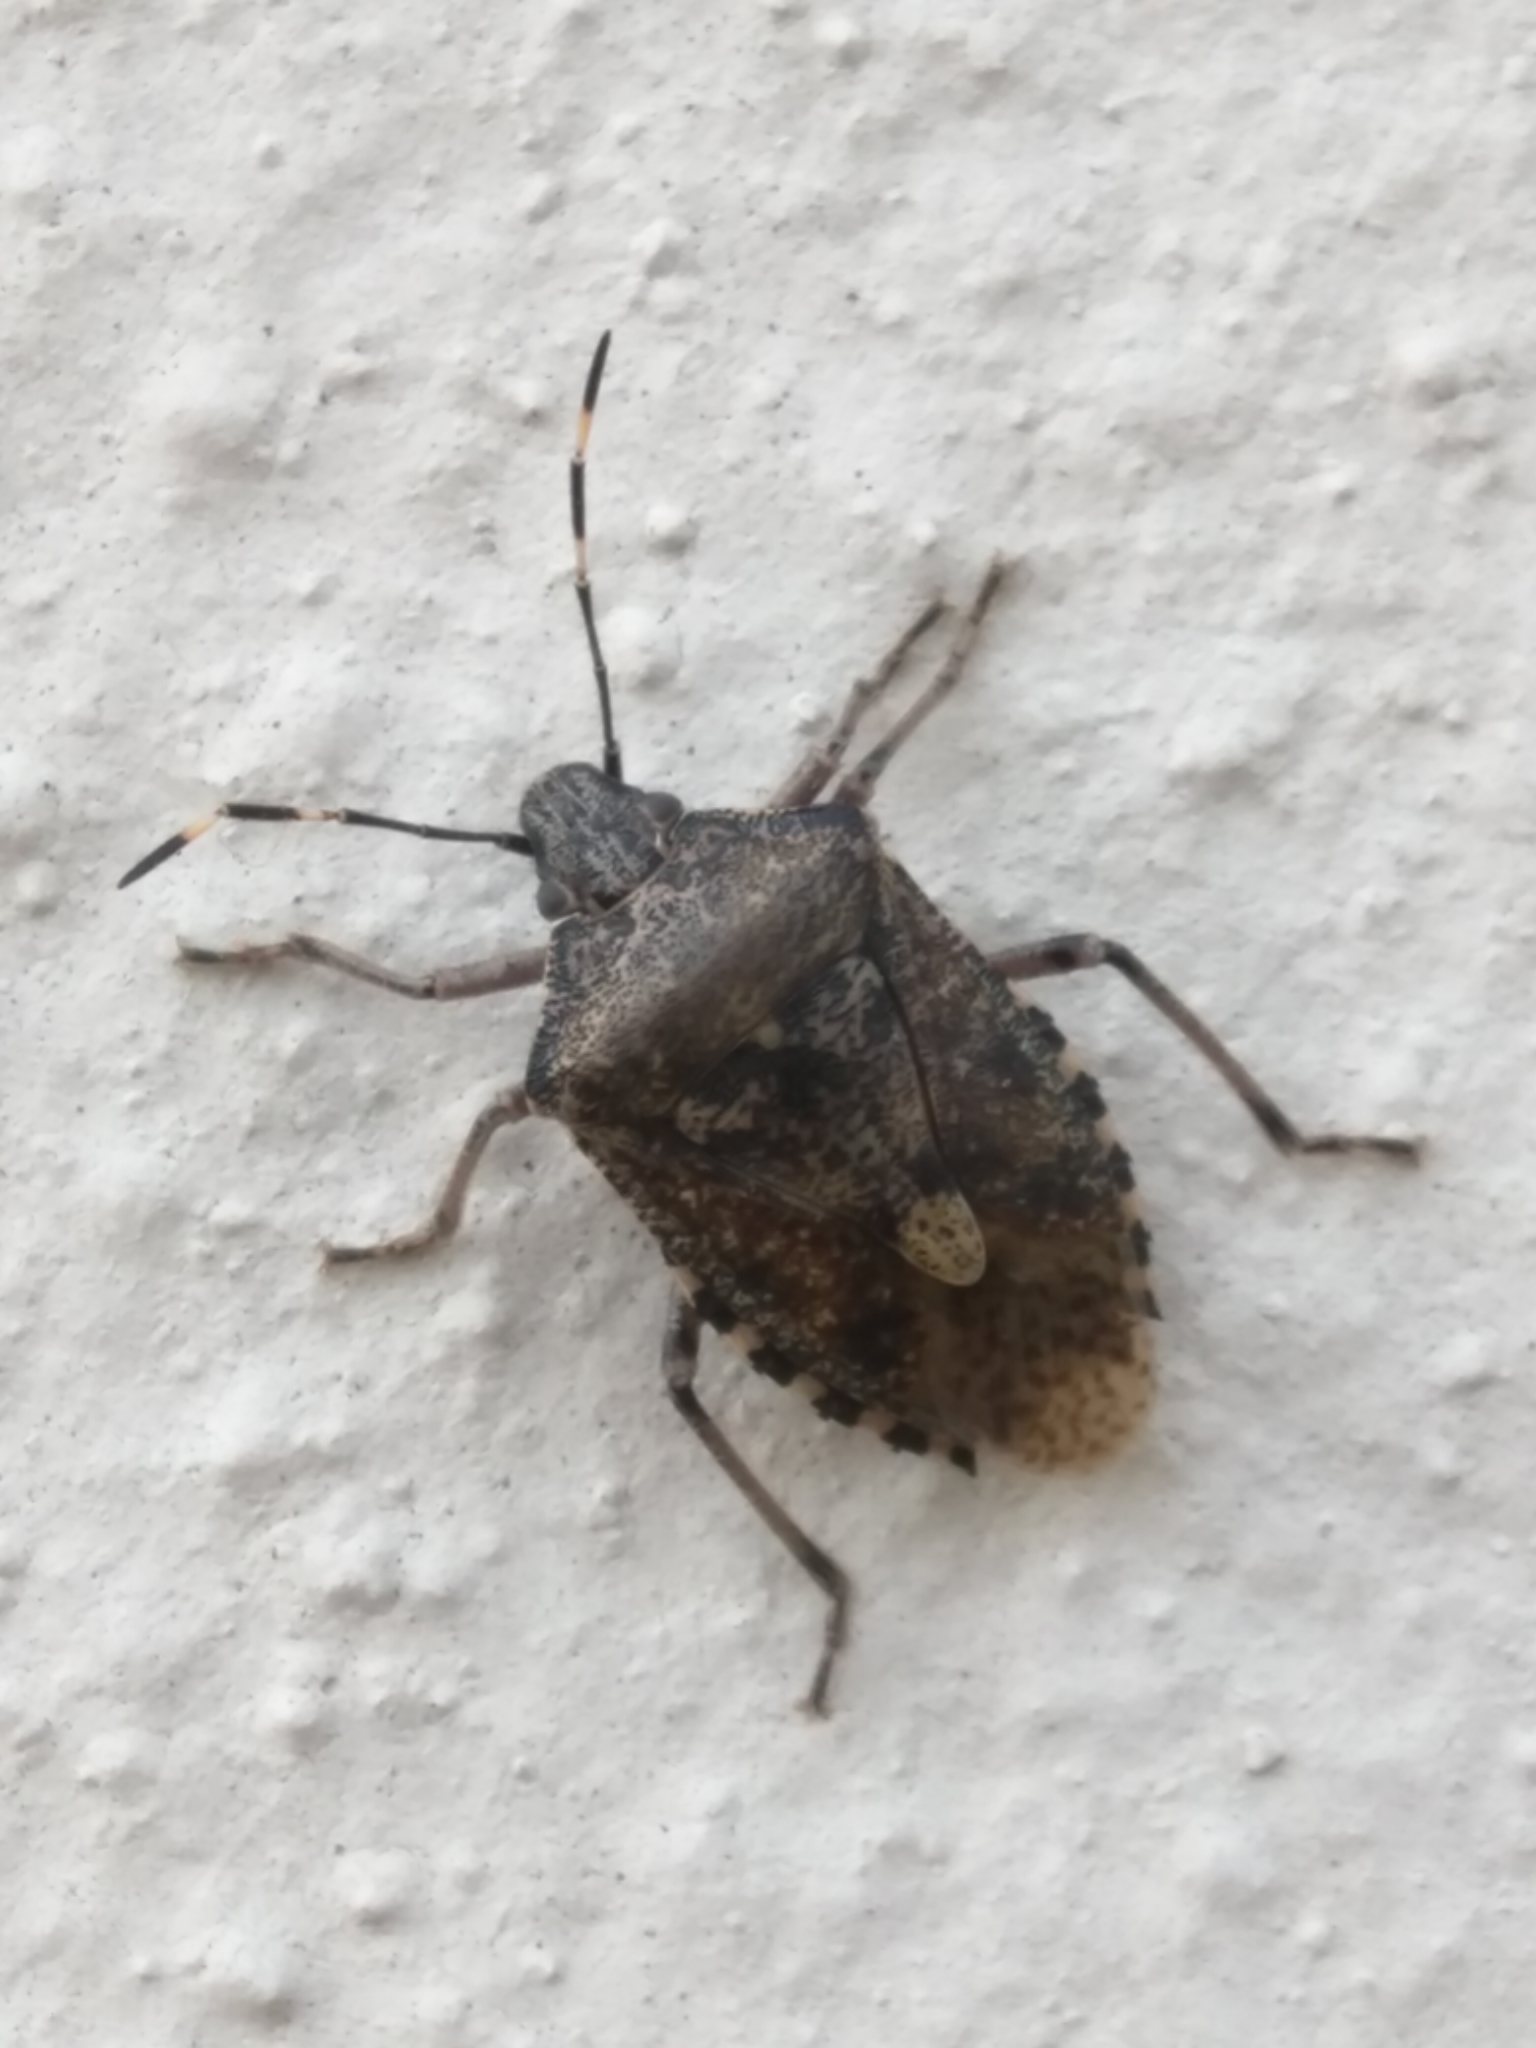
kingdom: Animalia
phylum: Arthropoda
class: Insecta
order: Hemiptera
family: Pentatomidae
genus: Rhaphigaster
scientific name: Rhaphigaster nebulosa
